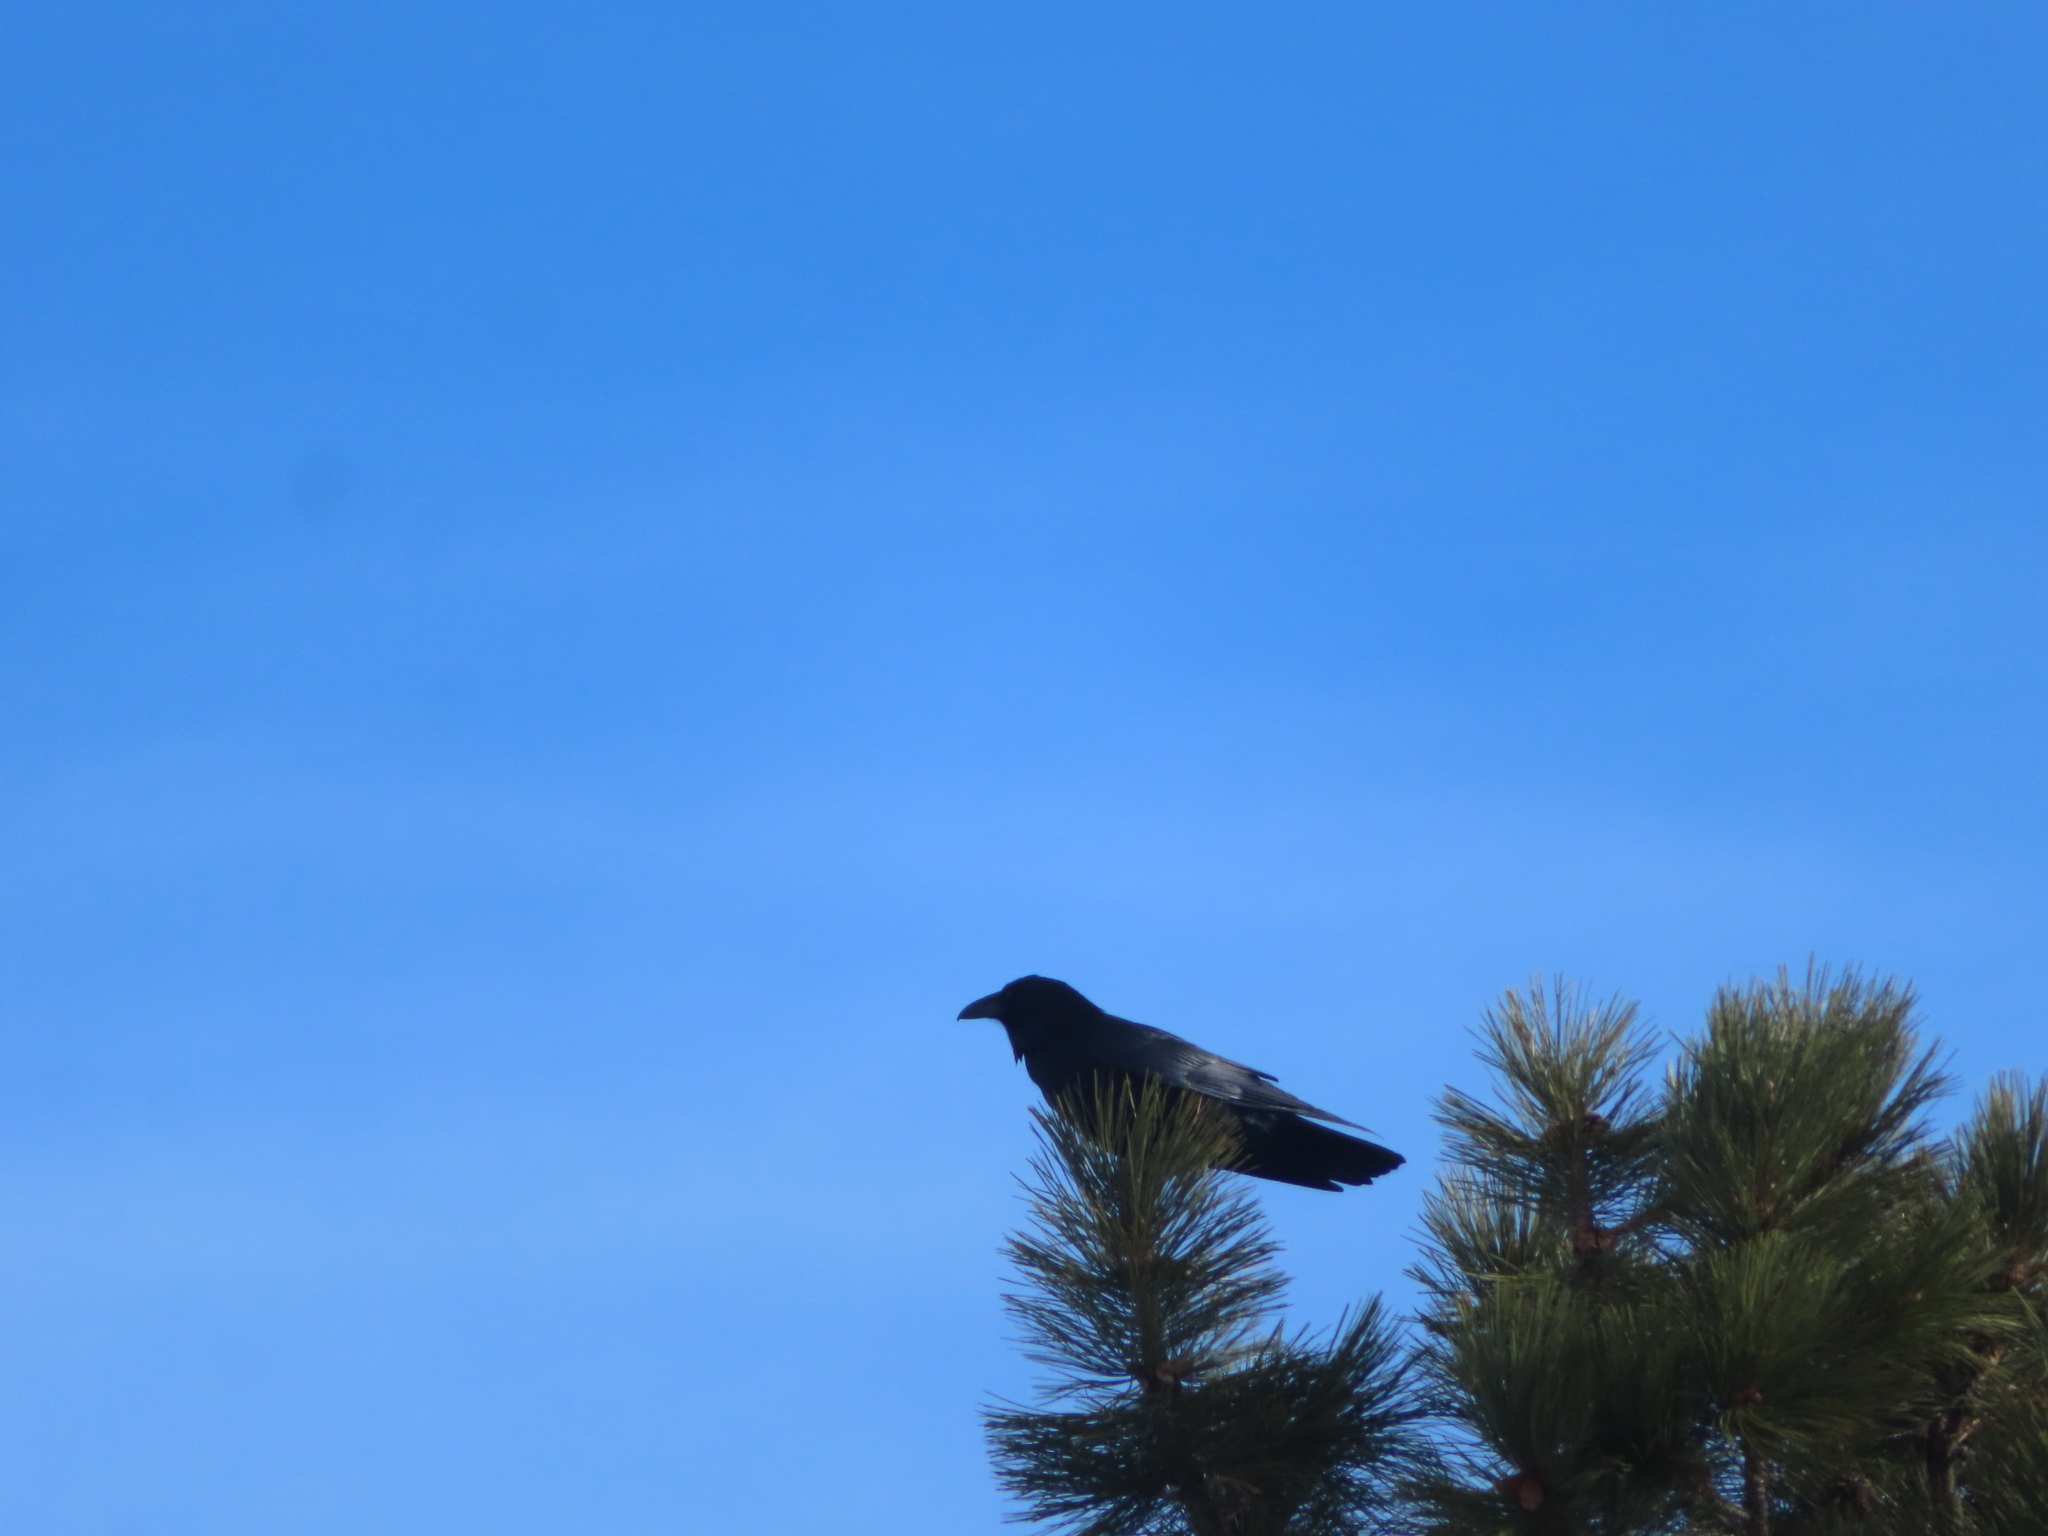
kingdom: Animalia
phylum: Chordata
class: Aves
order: Passeriformes
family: Corvidae
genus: Corvus
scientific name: Corvus corax
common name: Common raven
